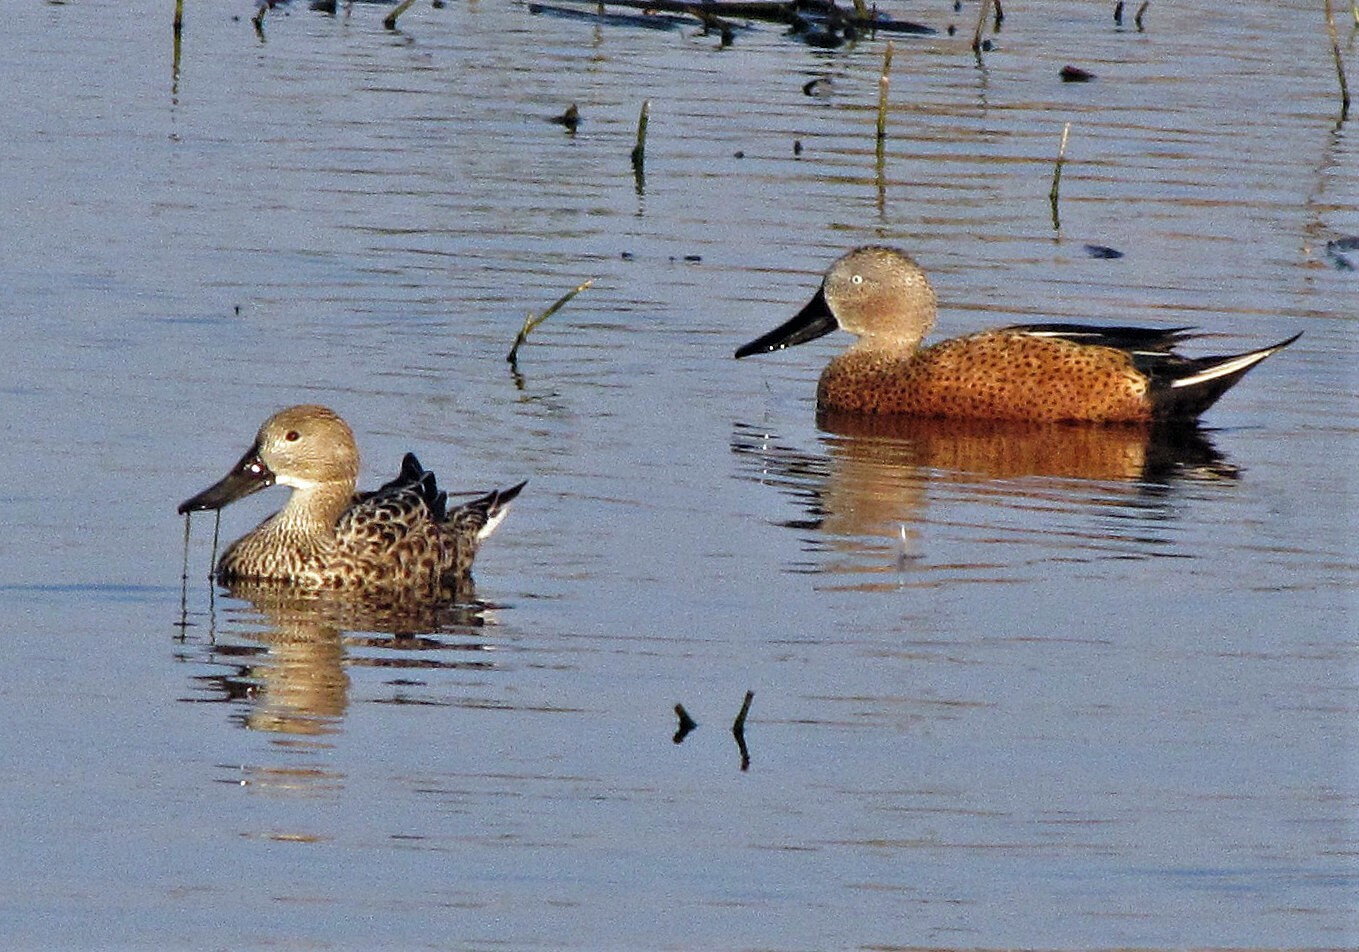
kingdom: Animalia
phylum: Chordata
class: Aves
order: Anseriformes
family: Anatidae
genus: Spatula
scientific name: Spatula platalea
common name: Red shoveler
